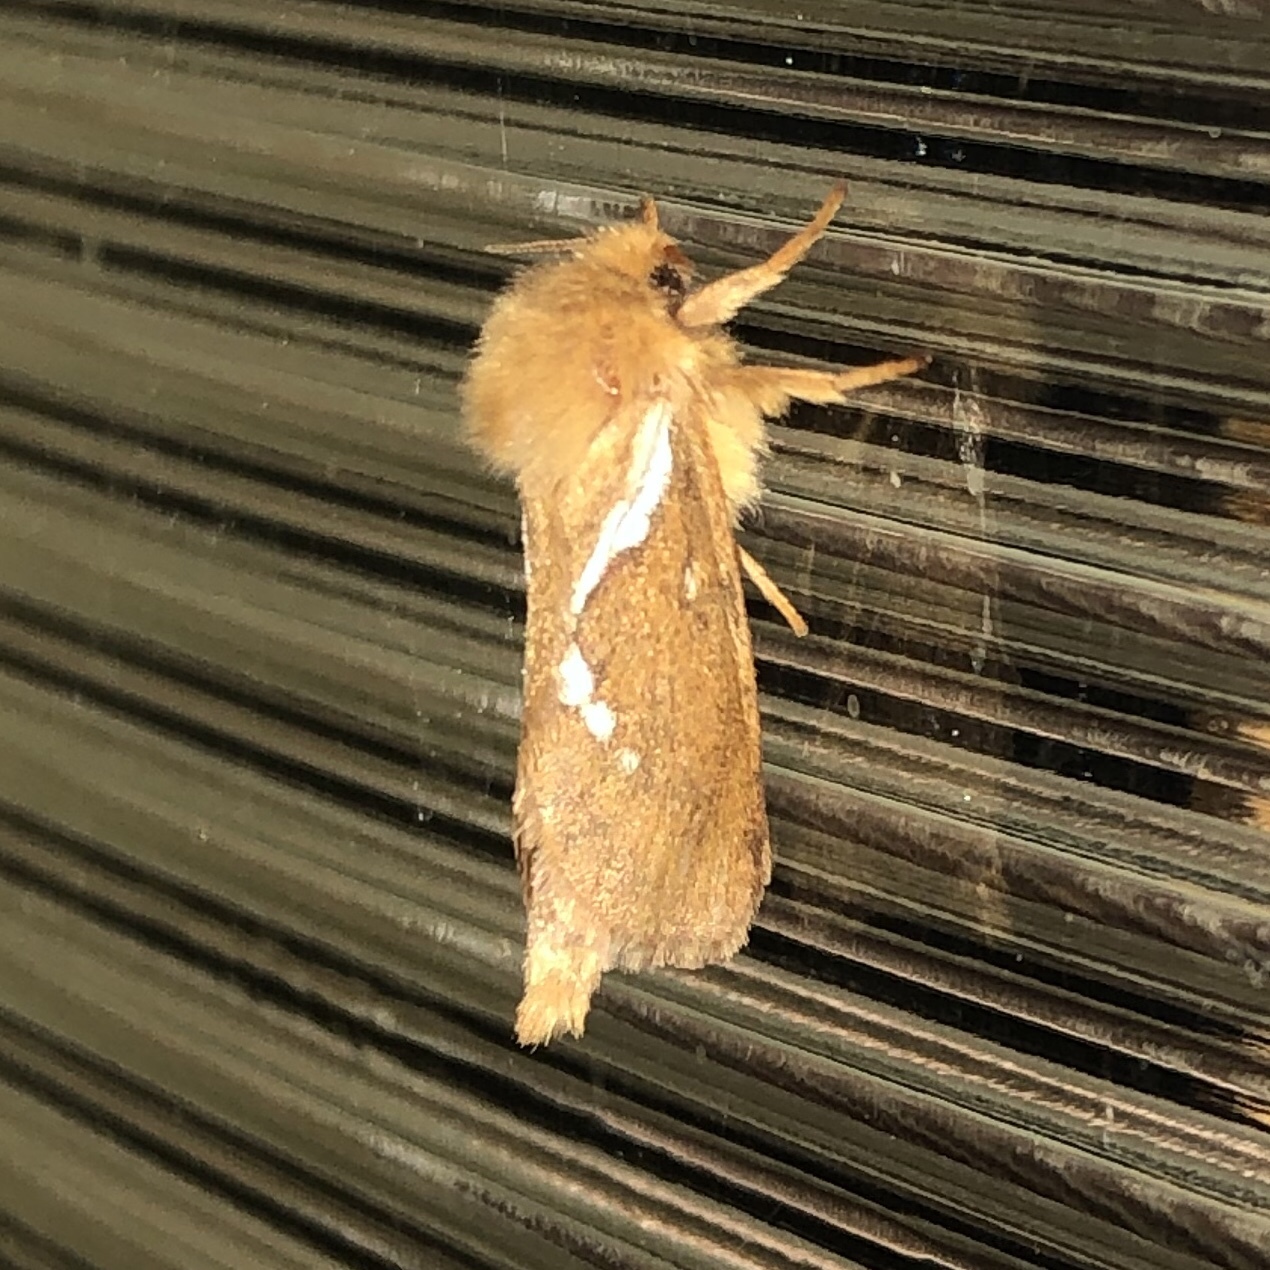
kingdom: Animalia
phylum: Arthropoda
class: Insecta
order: Lepidoptera
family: Hepialidae
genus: Korscheltellus
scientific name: Korscheltellus lupulina
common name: Common swift
